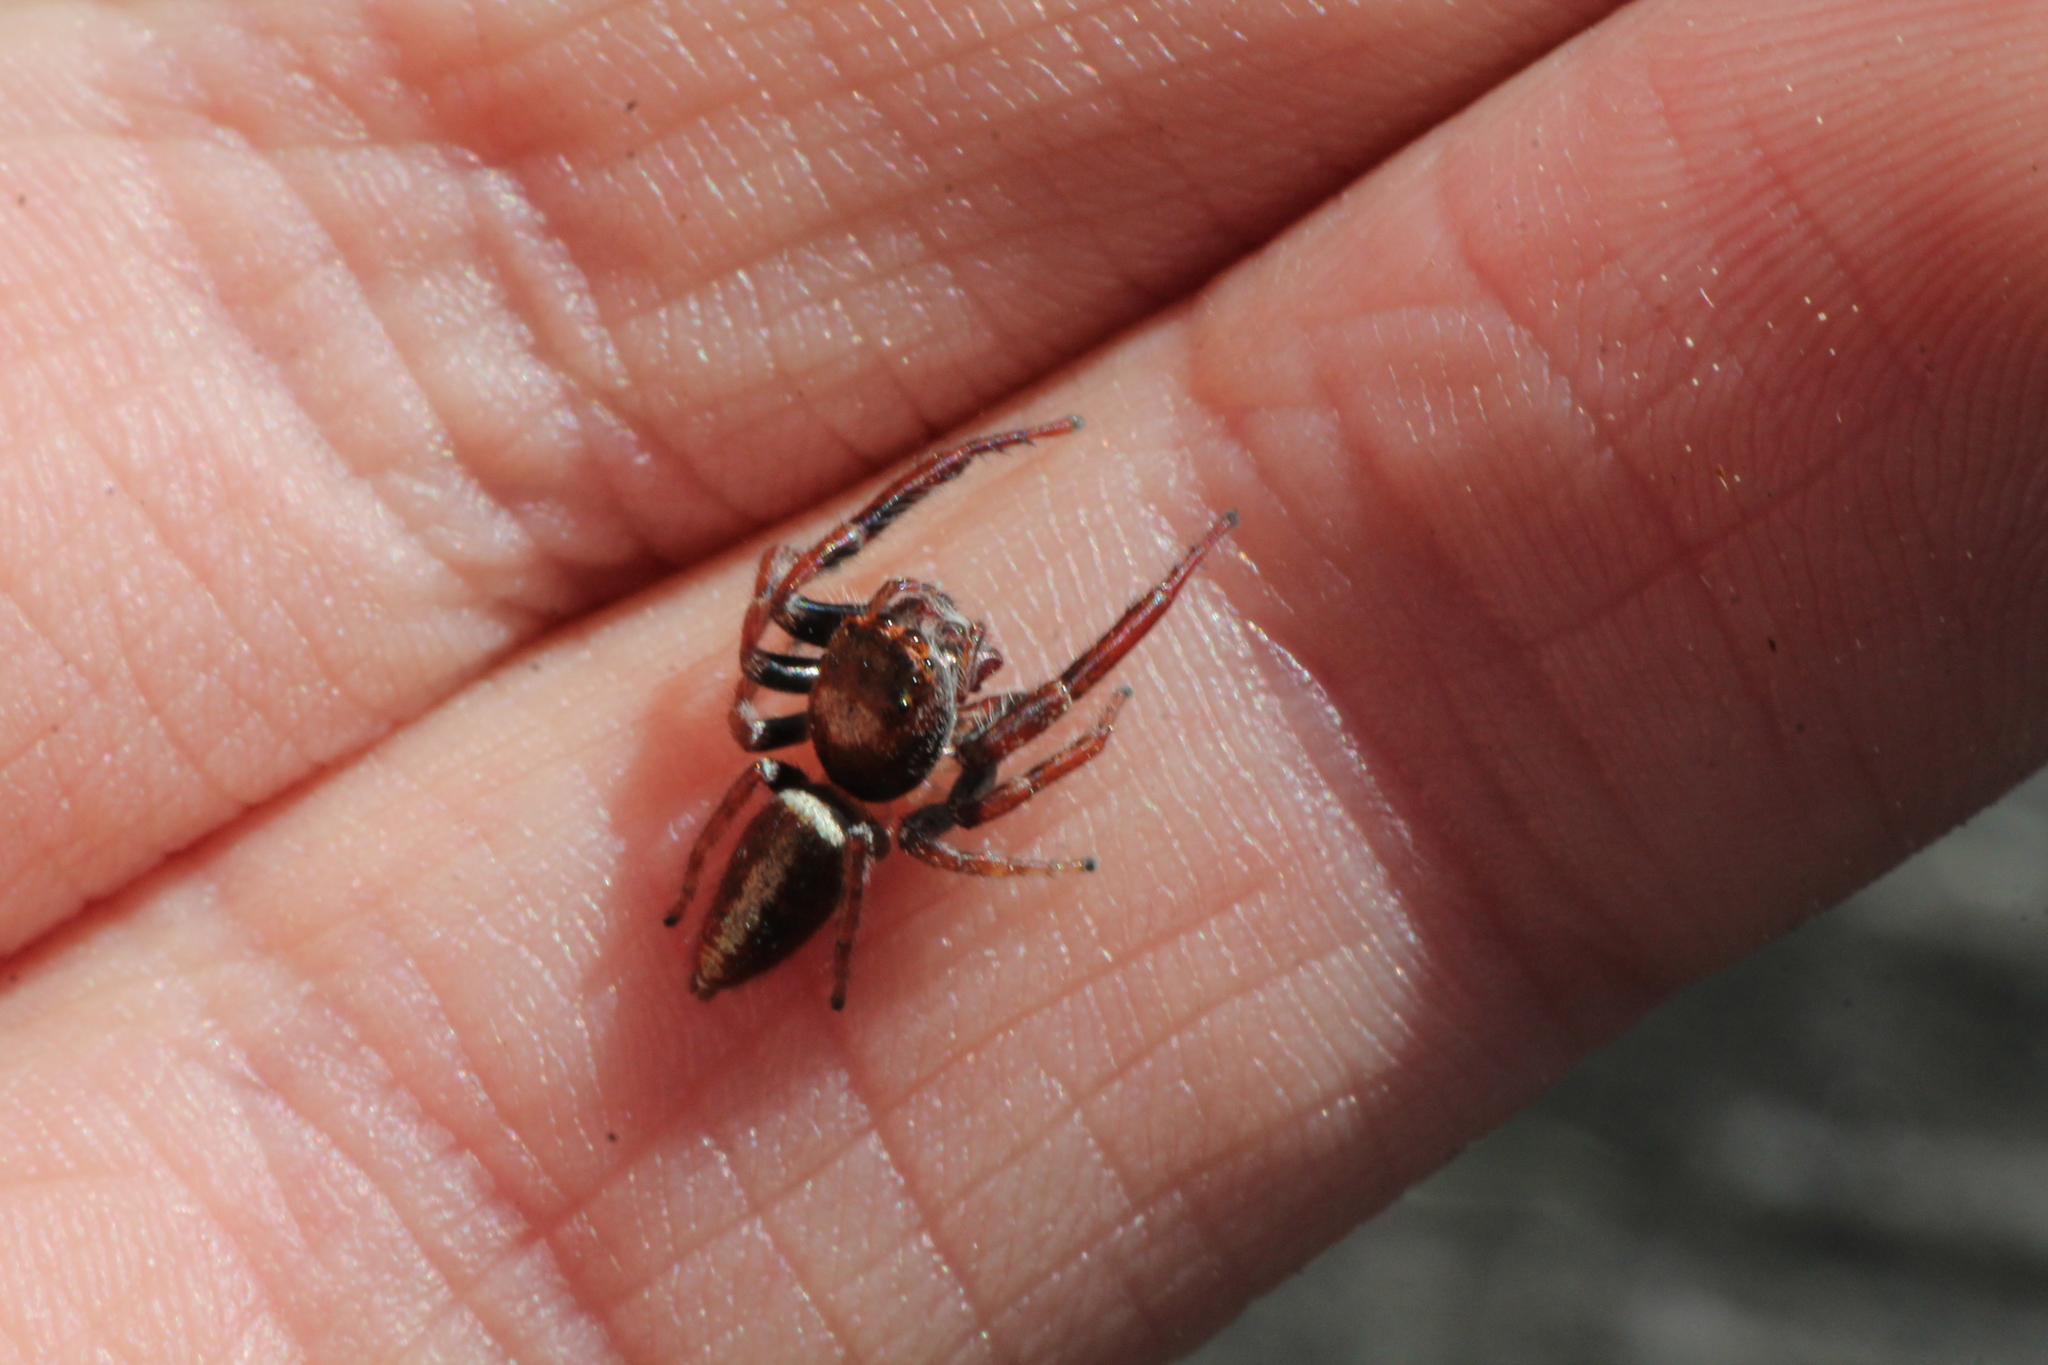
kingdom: Animalia
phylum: Arthropoda
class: Arachnida
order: Araneae
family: Salticidae
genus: Opisthoncus
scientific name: Opisthoncus polyphemus
